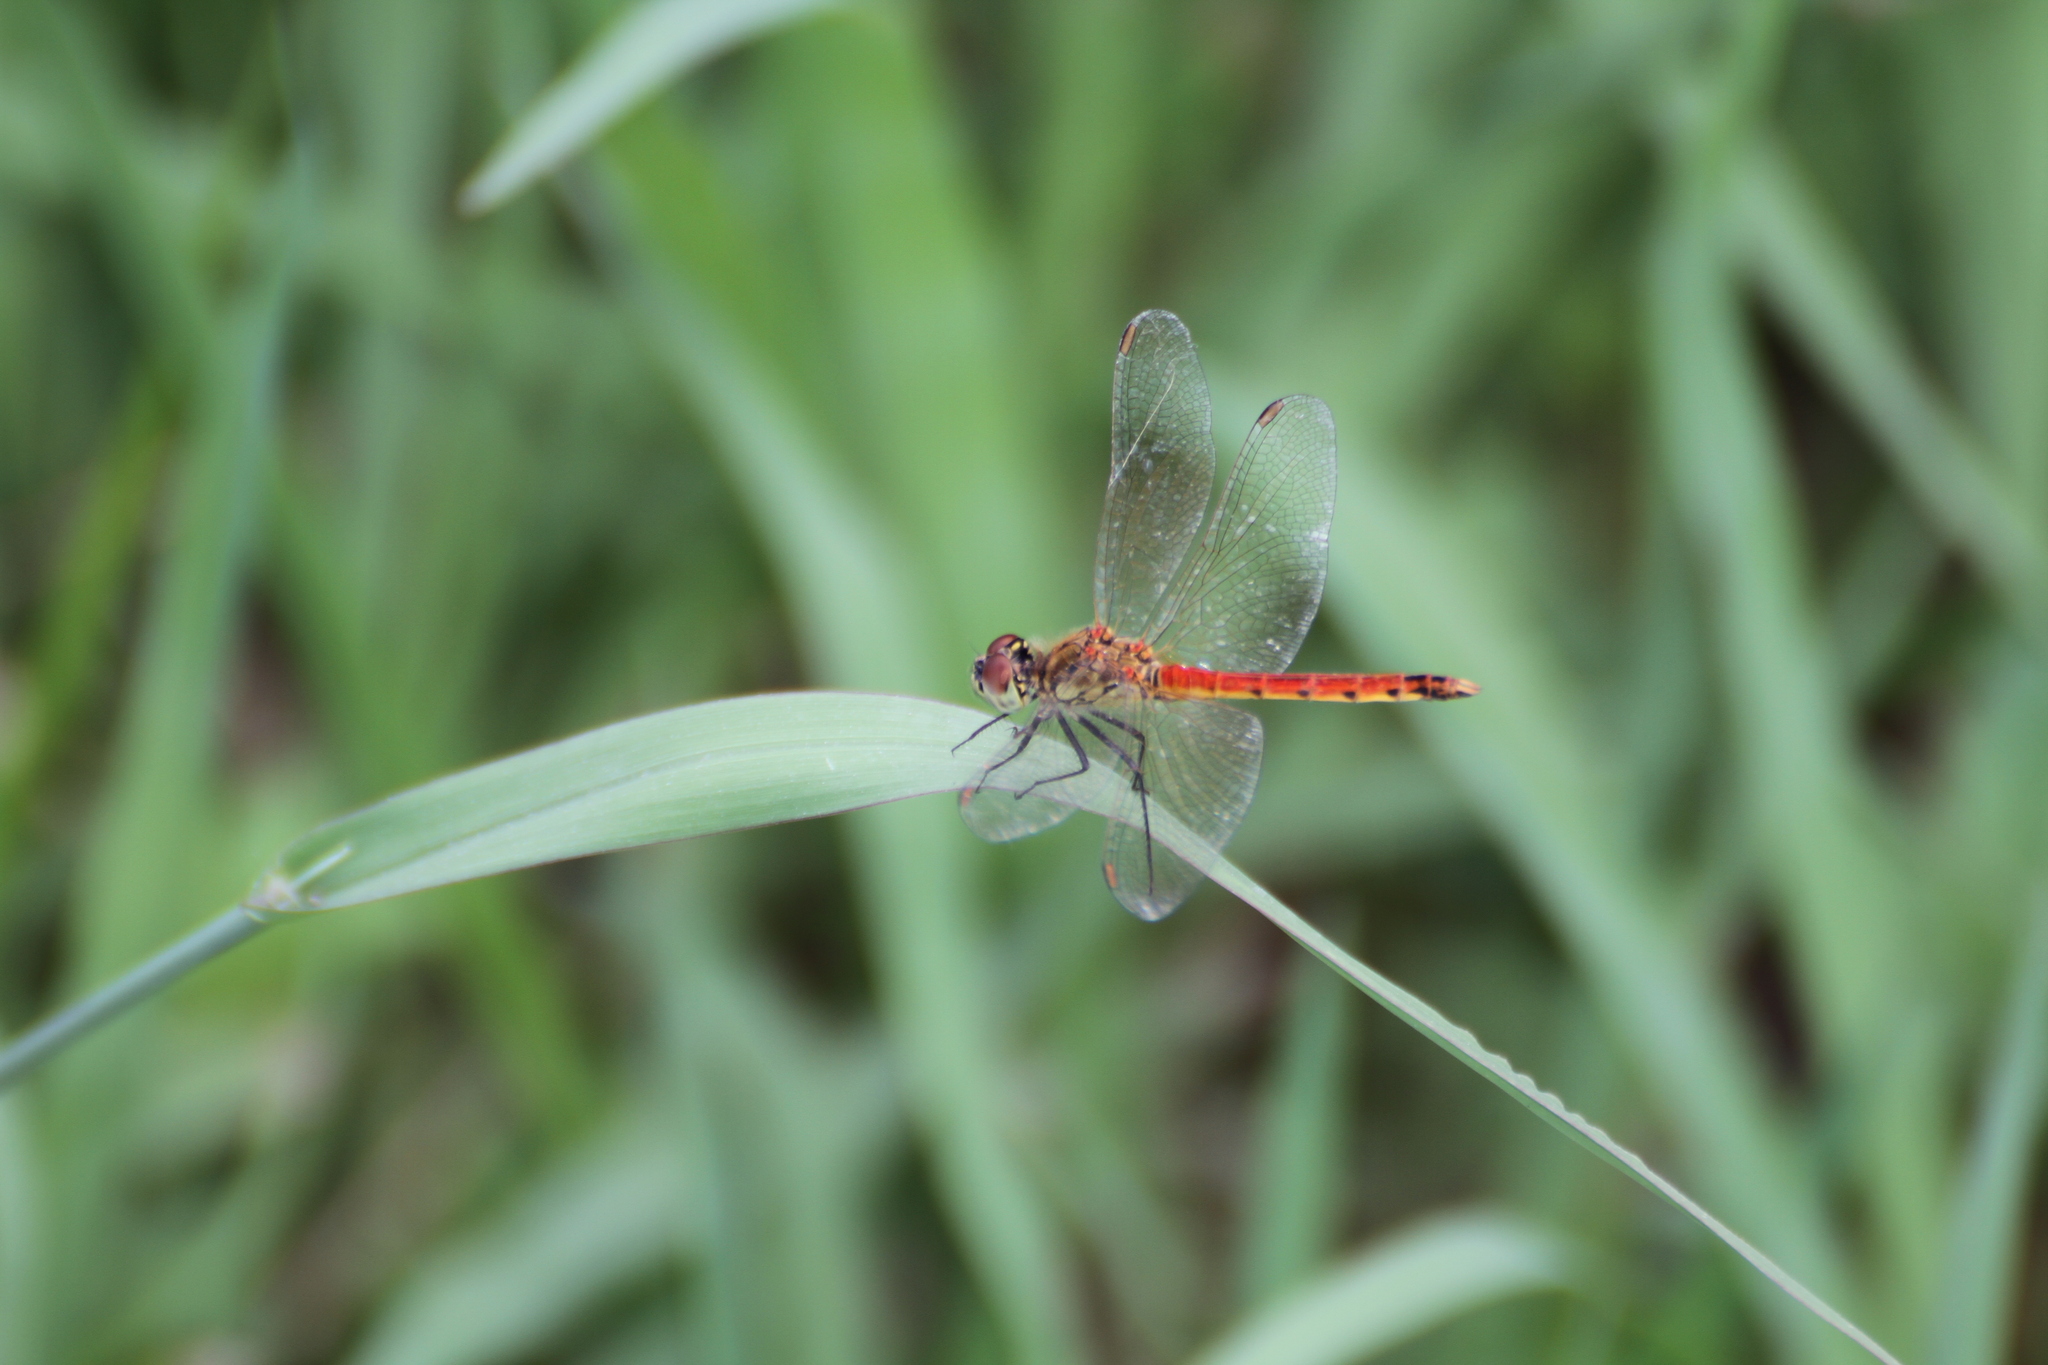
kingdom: Animalia
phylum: Arthropoda
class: Insecta
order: Odonata
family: Libellulidae
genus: Sympetrum
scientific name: Sympetrum depressiusculum
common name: Spotted darter
